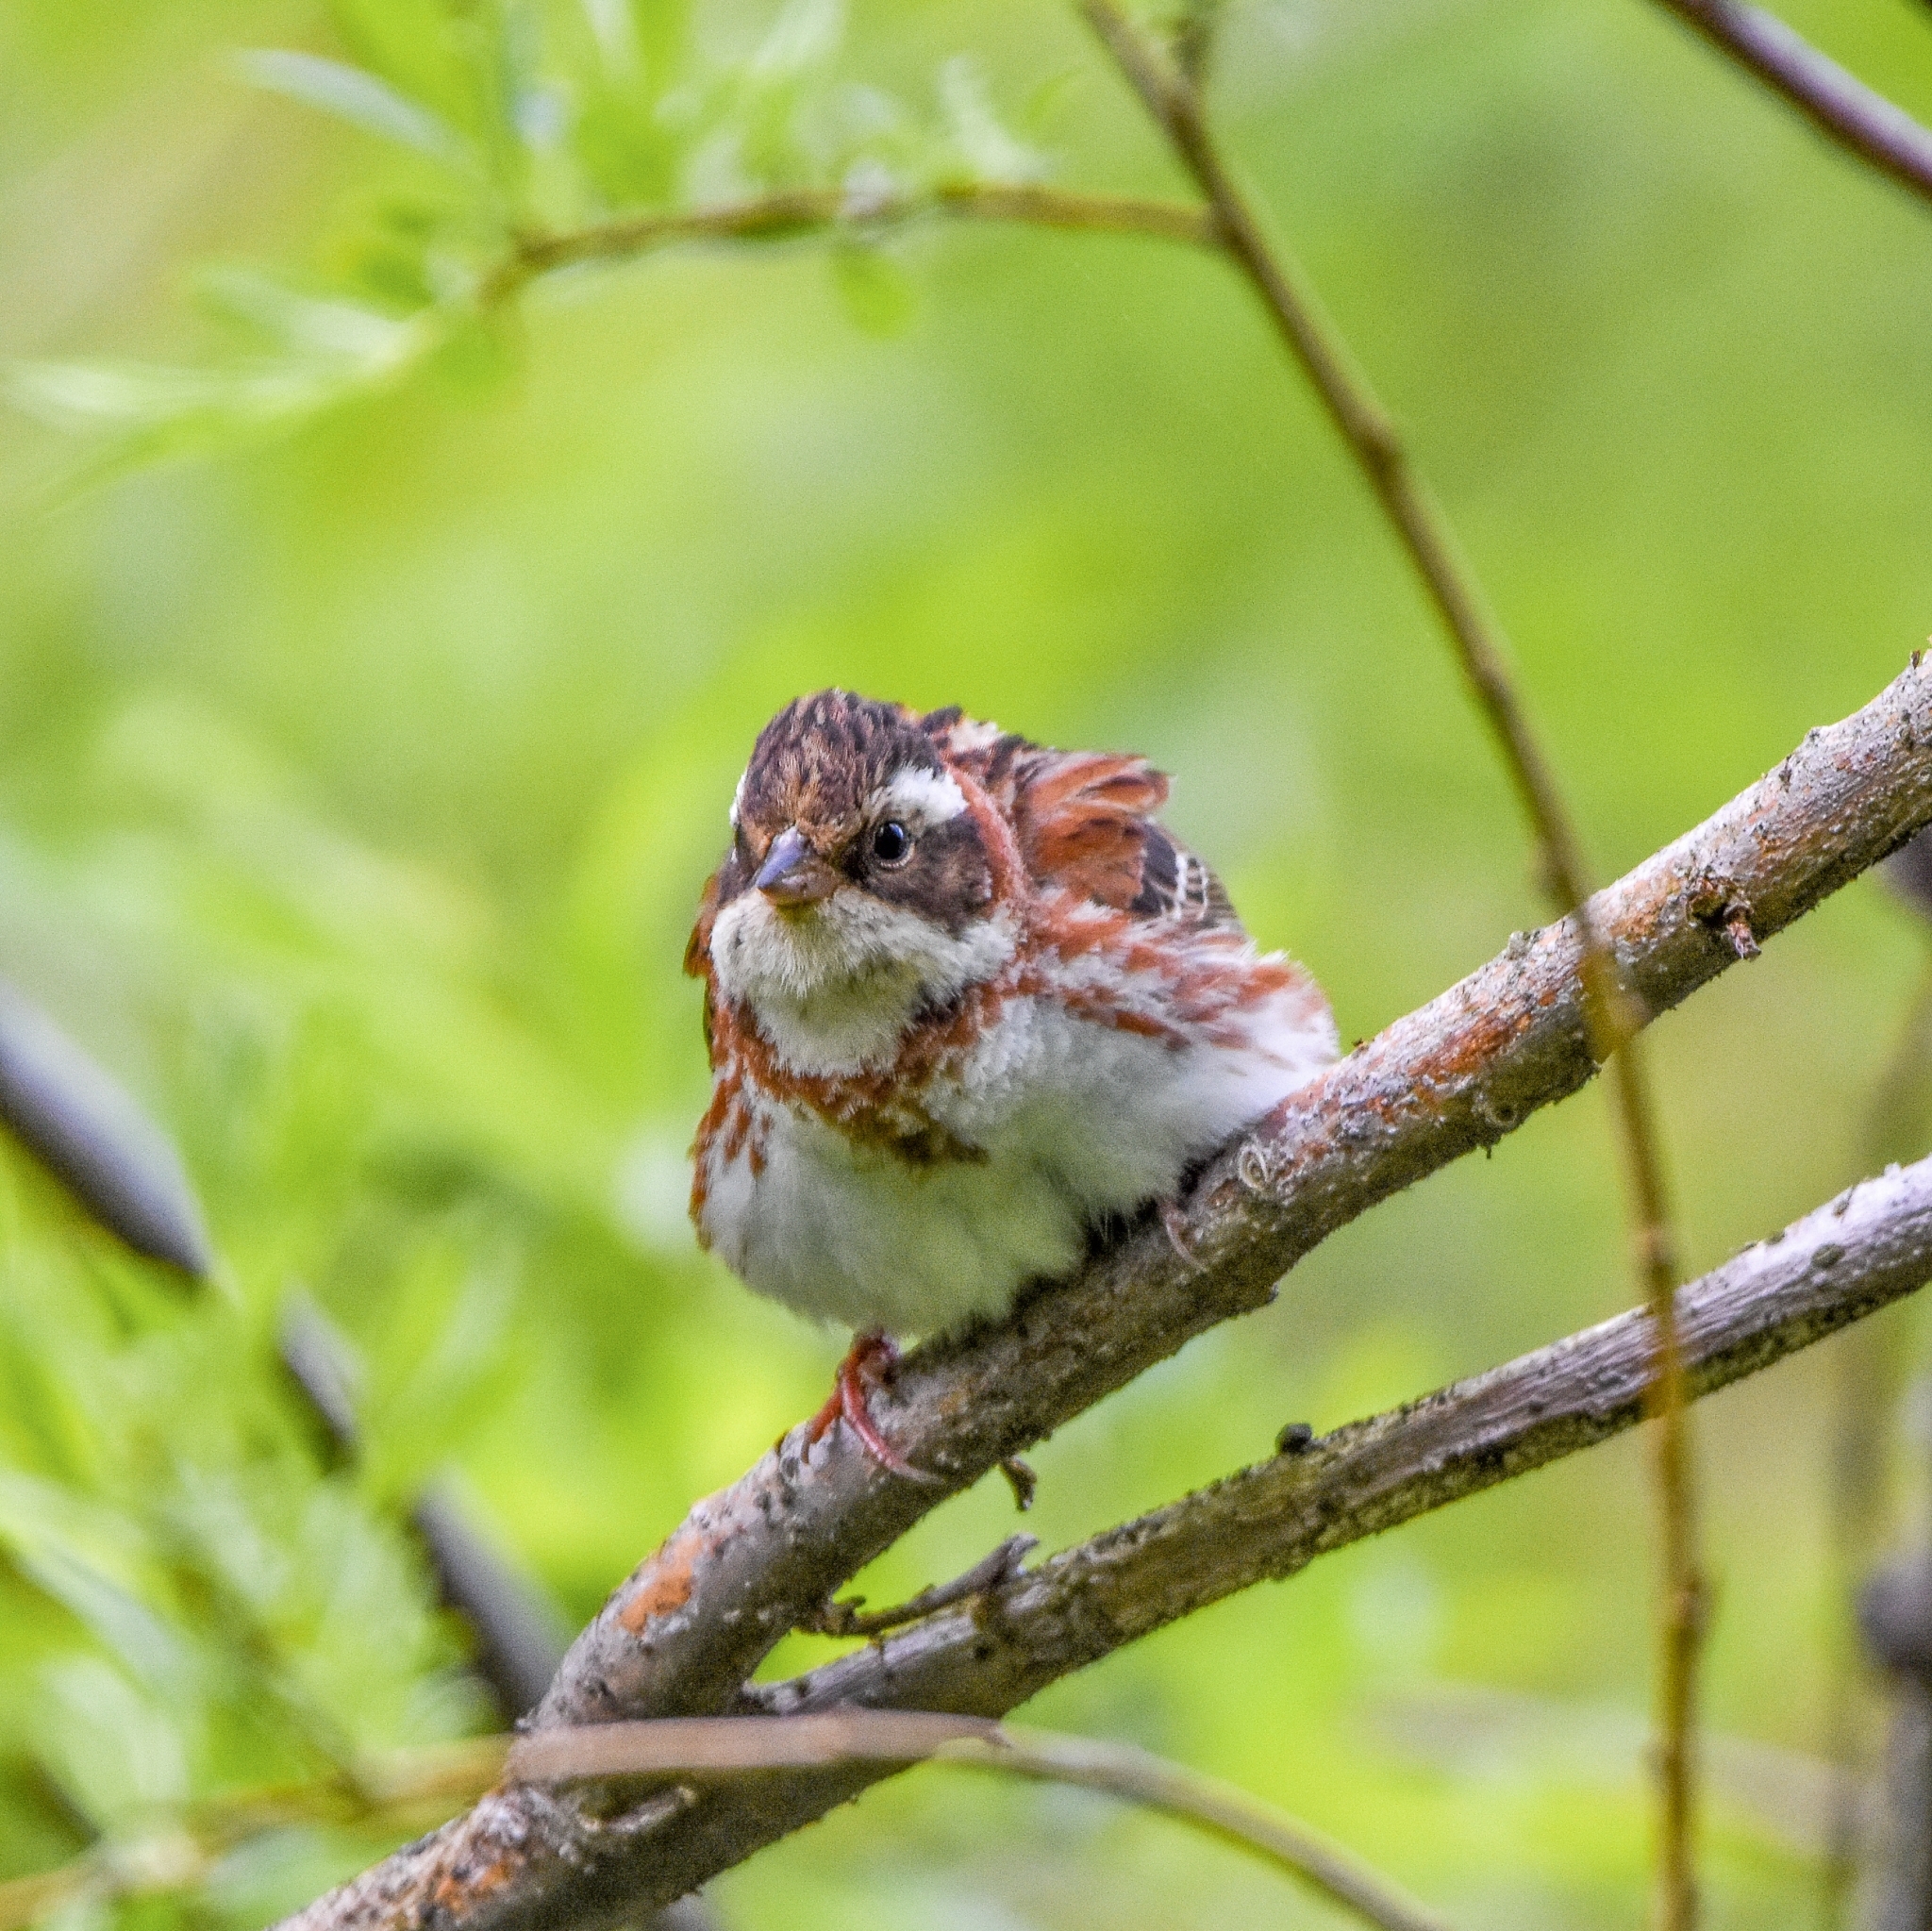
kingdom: Animalia
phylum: Chordata
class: Aves
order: Passeriformes
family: Emberizidae
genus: Emberiza
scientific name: Emberiza rustica
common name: Rustic bunting
